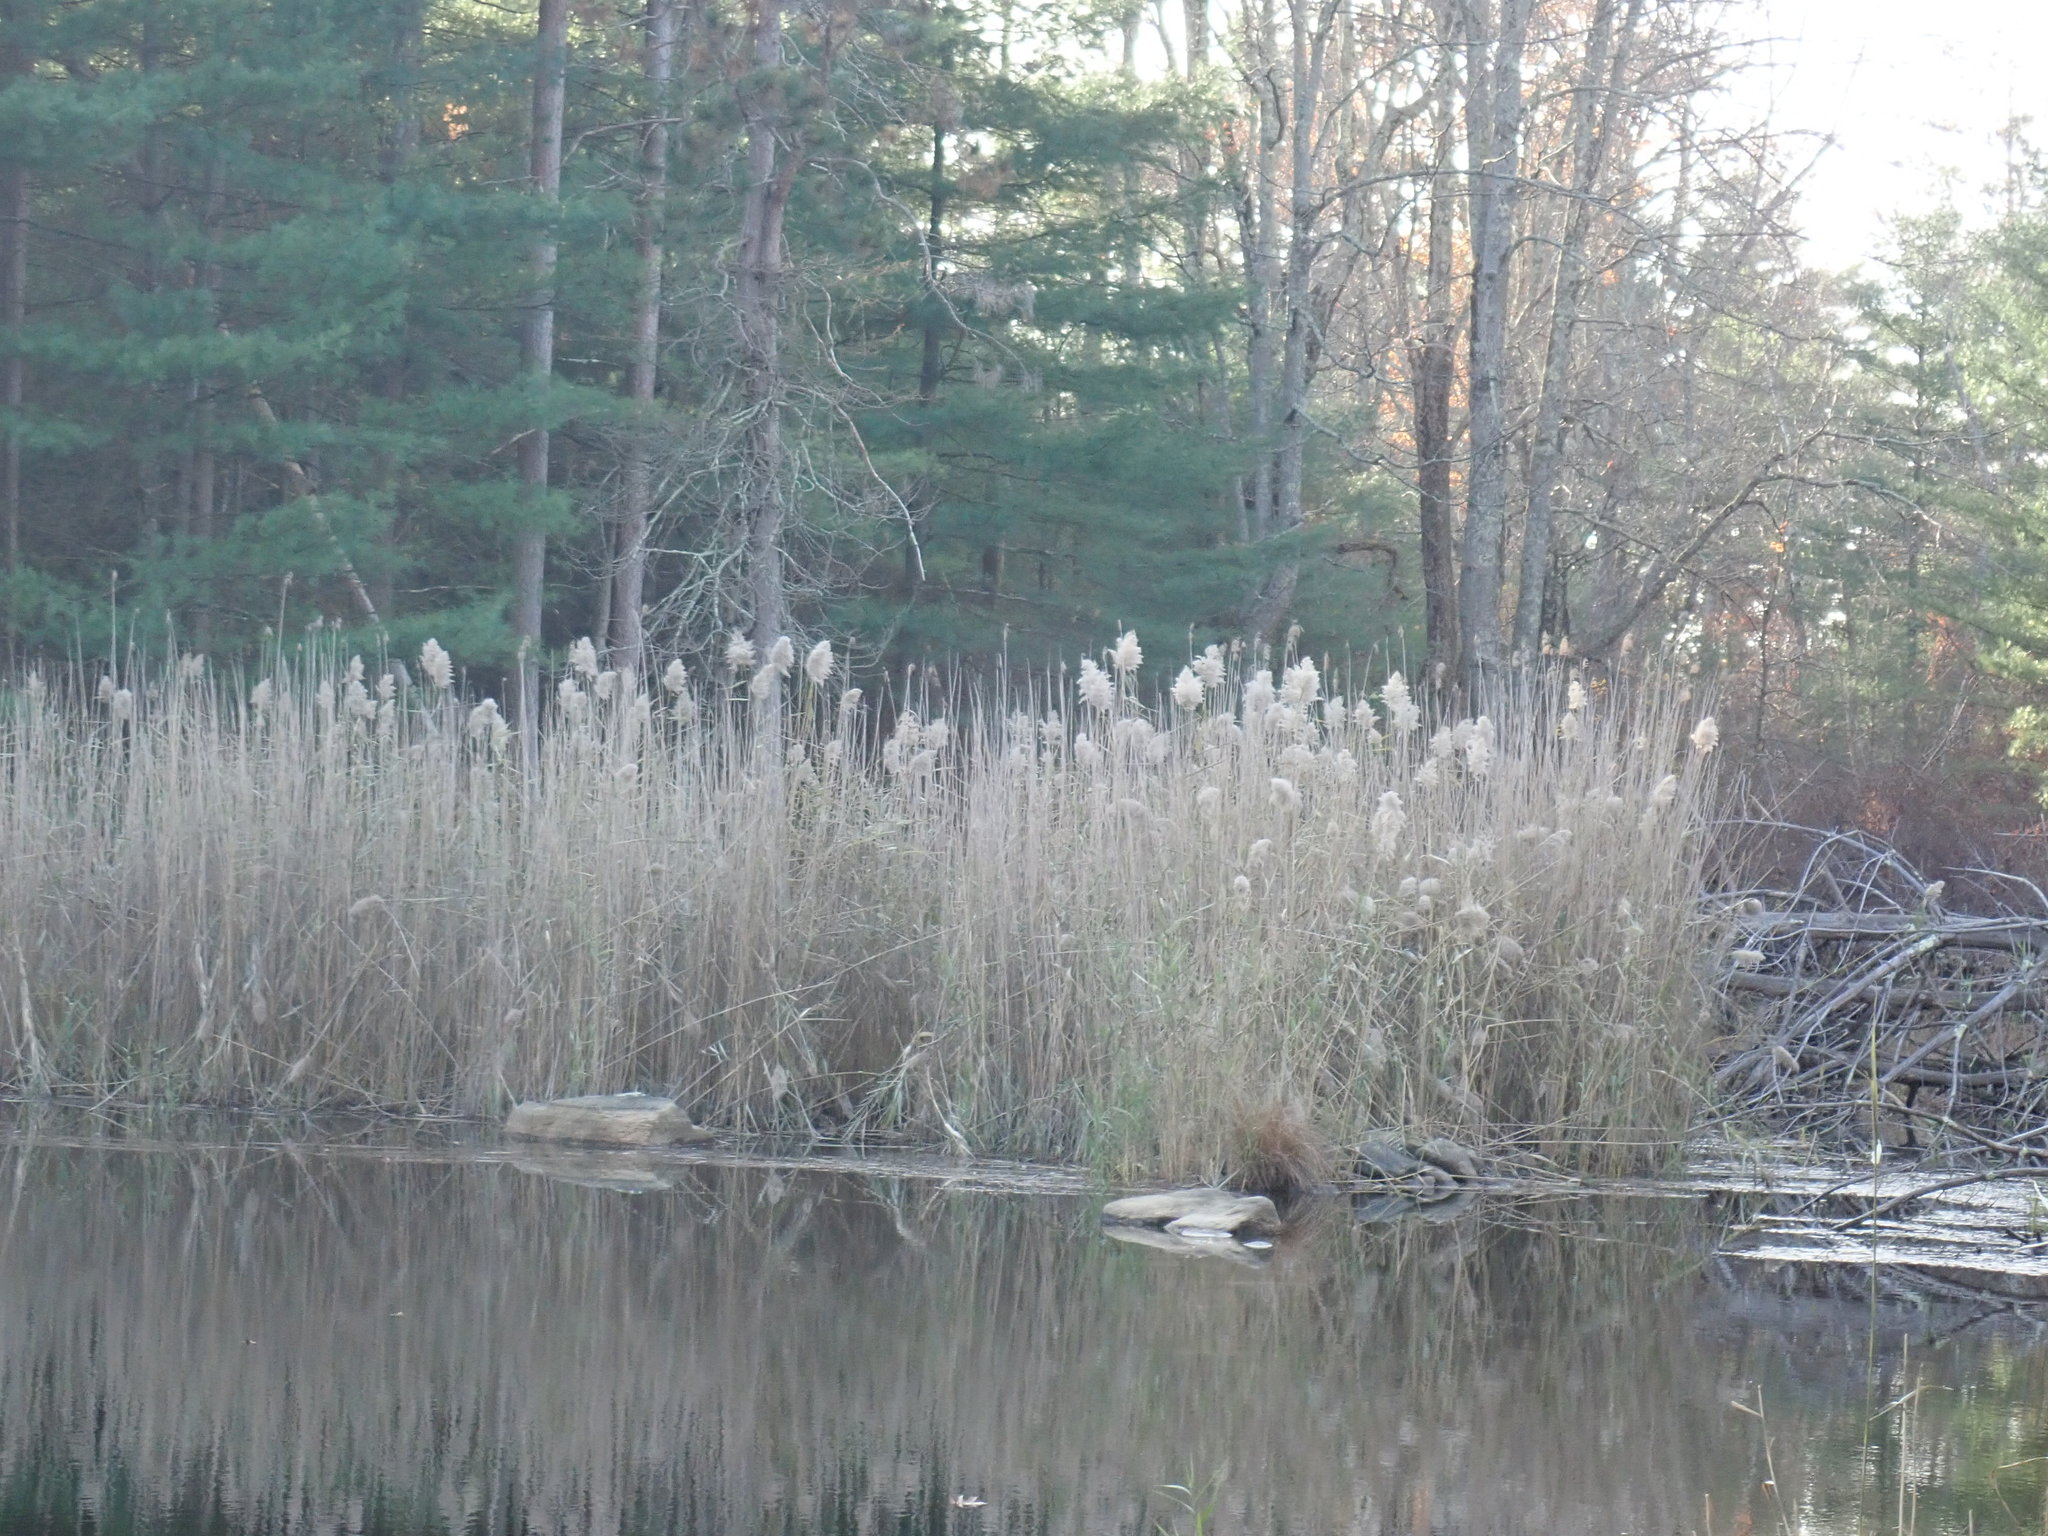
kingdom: Plantae
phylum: Tracheophyta
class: Liliopsida
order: Poales
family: Poaceae
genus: Phragmites
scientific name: Phragmites australis
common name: Common reed
